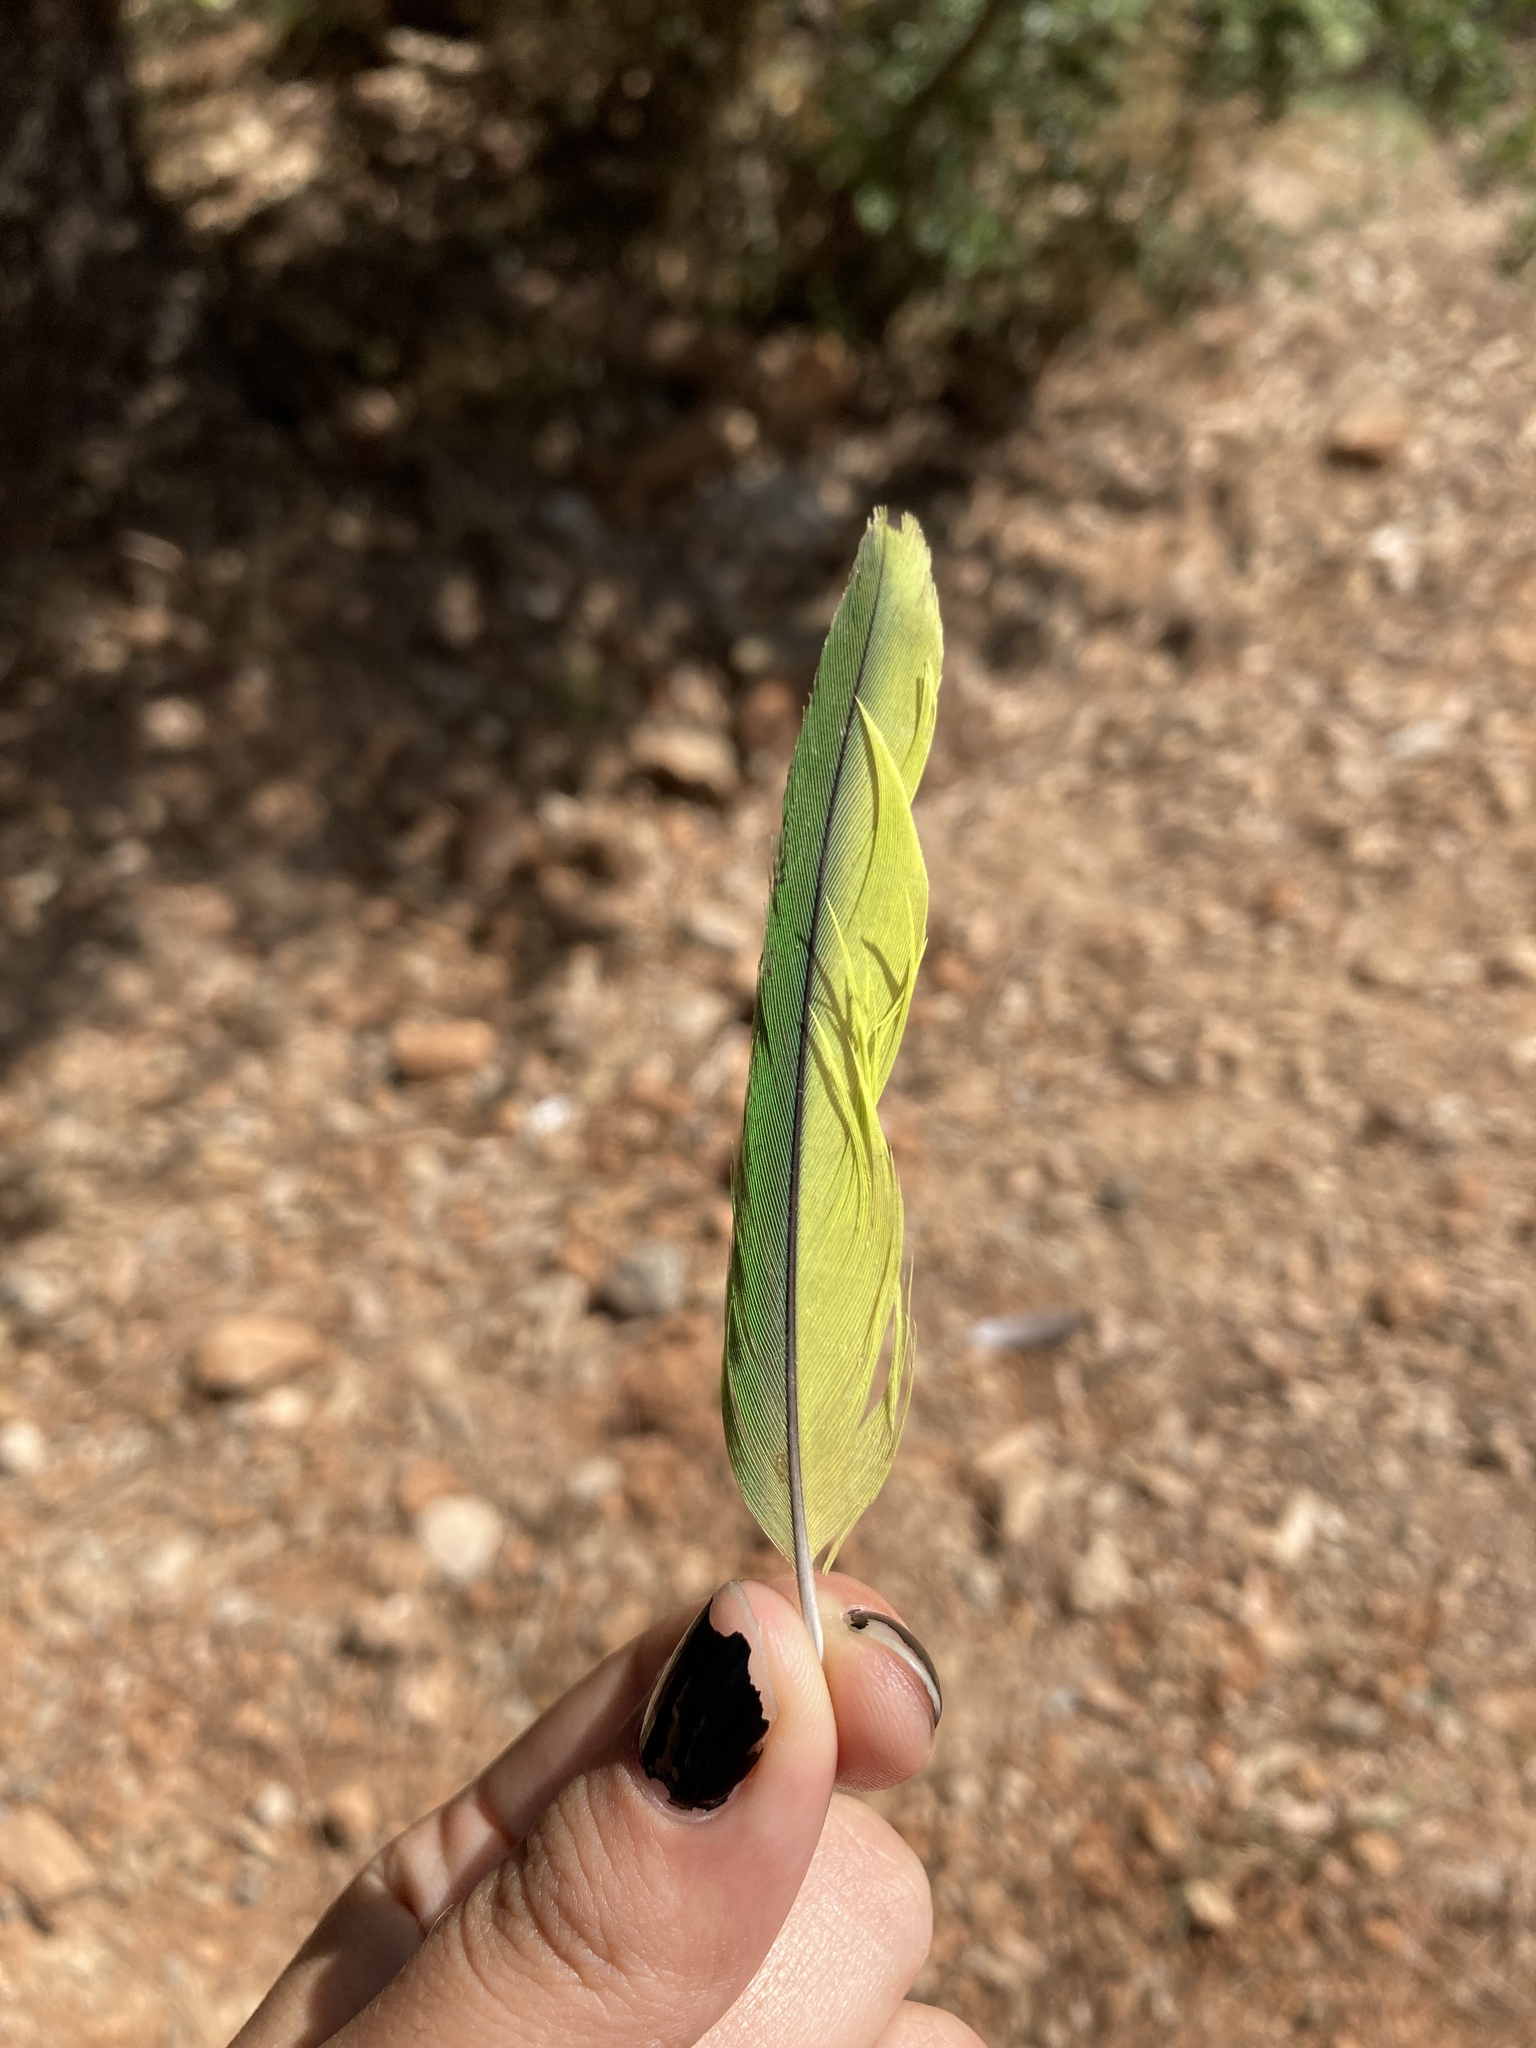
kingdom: Animalia
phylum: Chordata
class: Aves
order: Psittaciformes
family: Psittacidae
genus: Myiopsitta
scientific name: Myiopsitta monachus
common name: Monk parakeet
